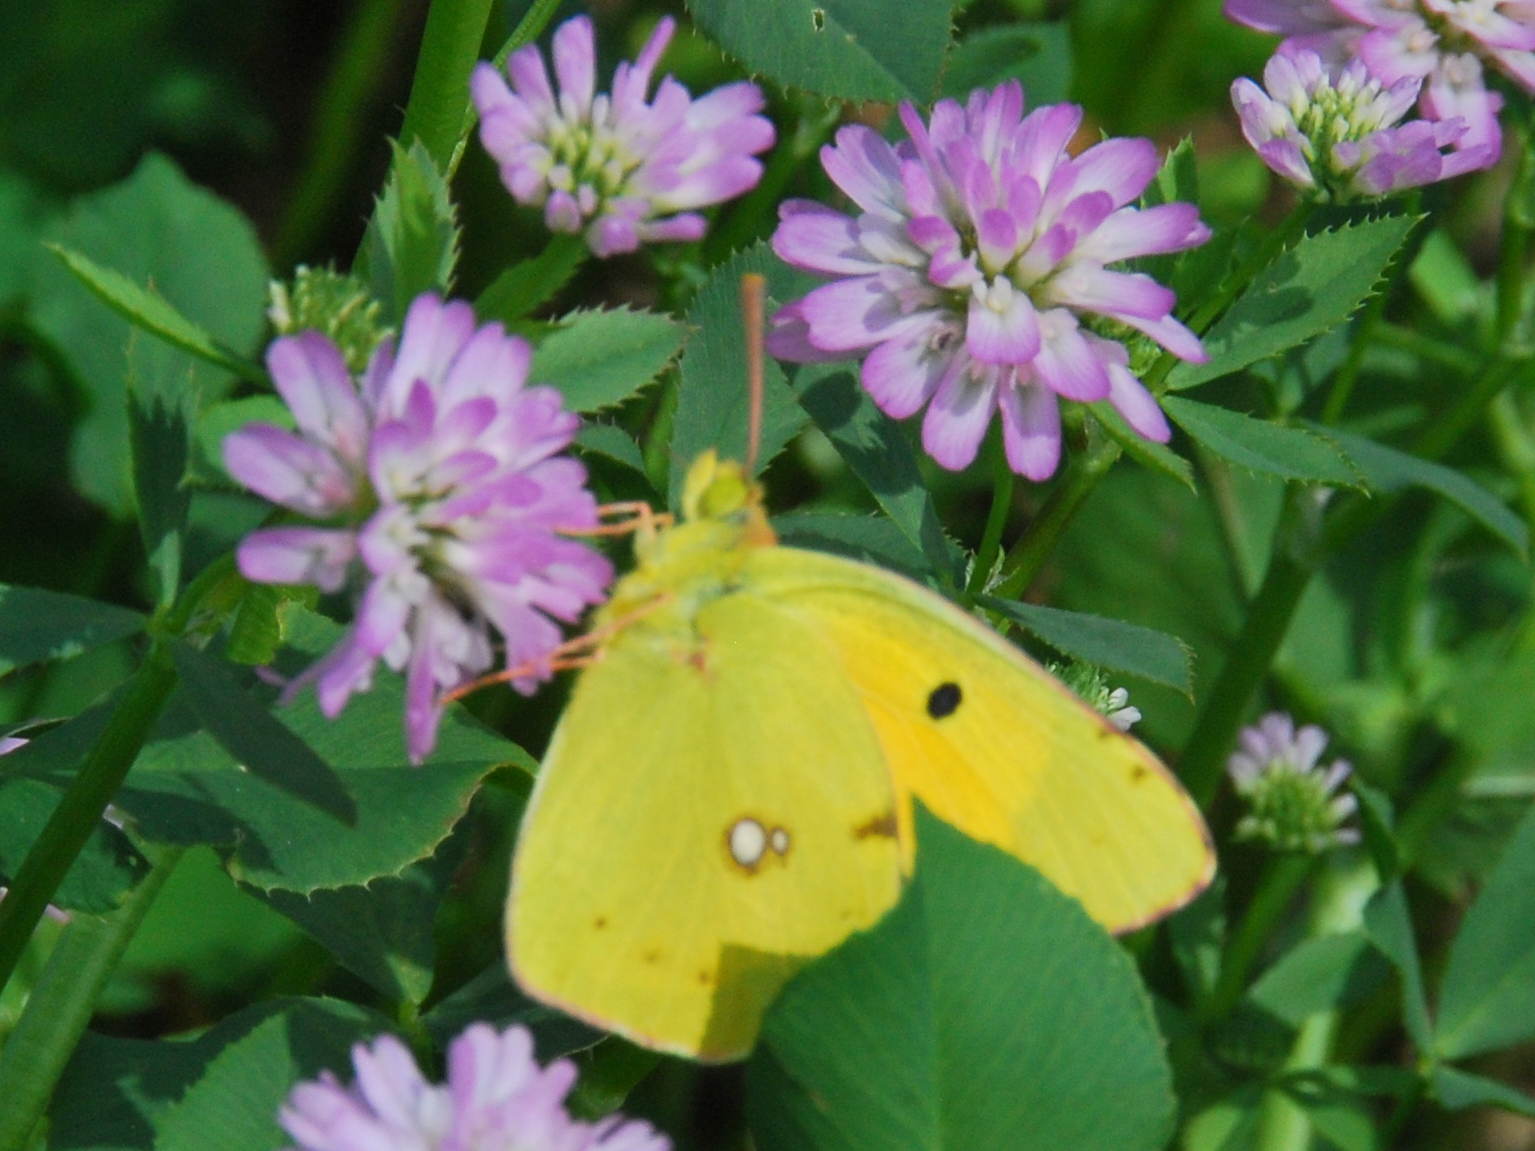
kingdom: Animalia
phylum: Arthropoda
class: Insecta
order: Lepidoptera
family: Pieridae
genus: Colias
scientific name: Colias croceus
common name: Clouded yellow
